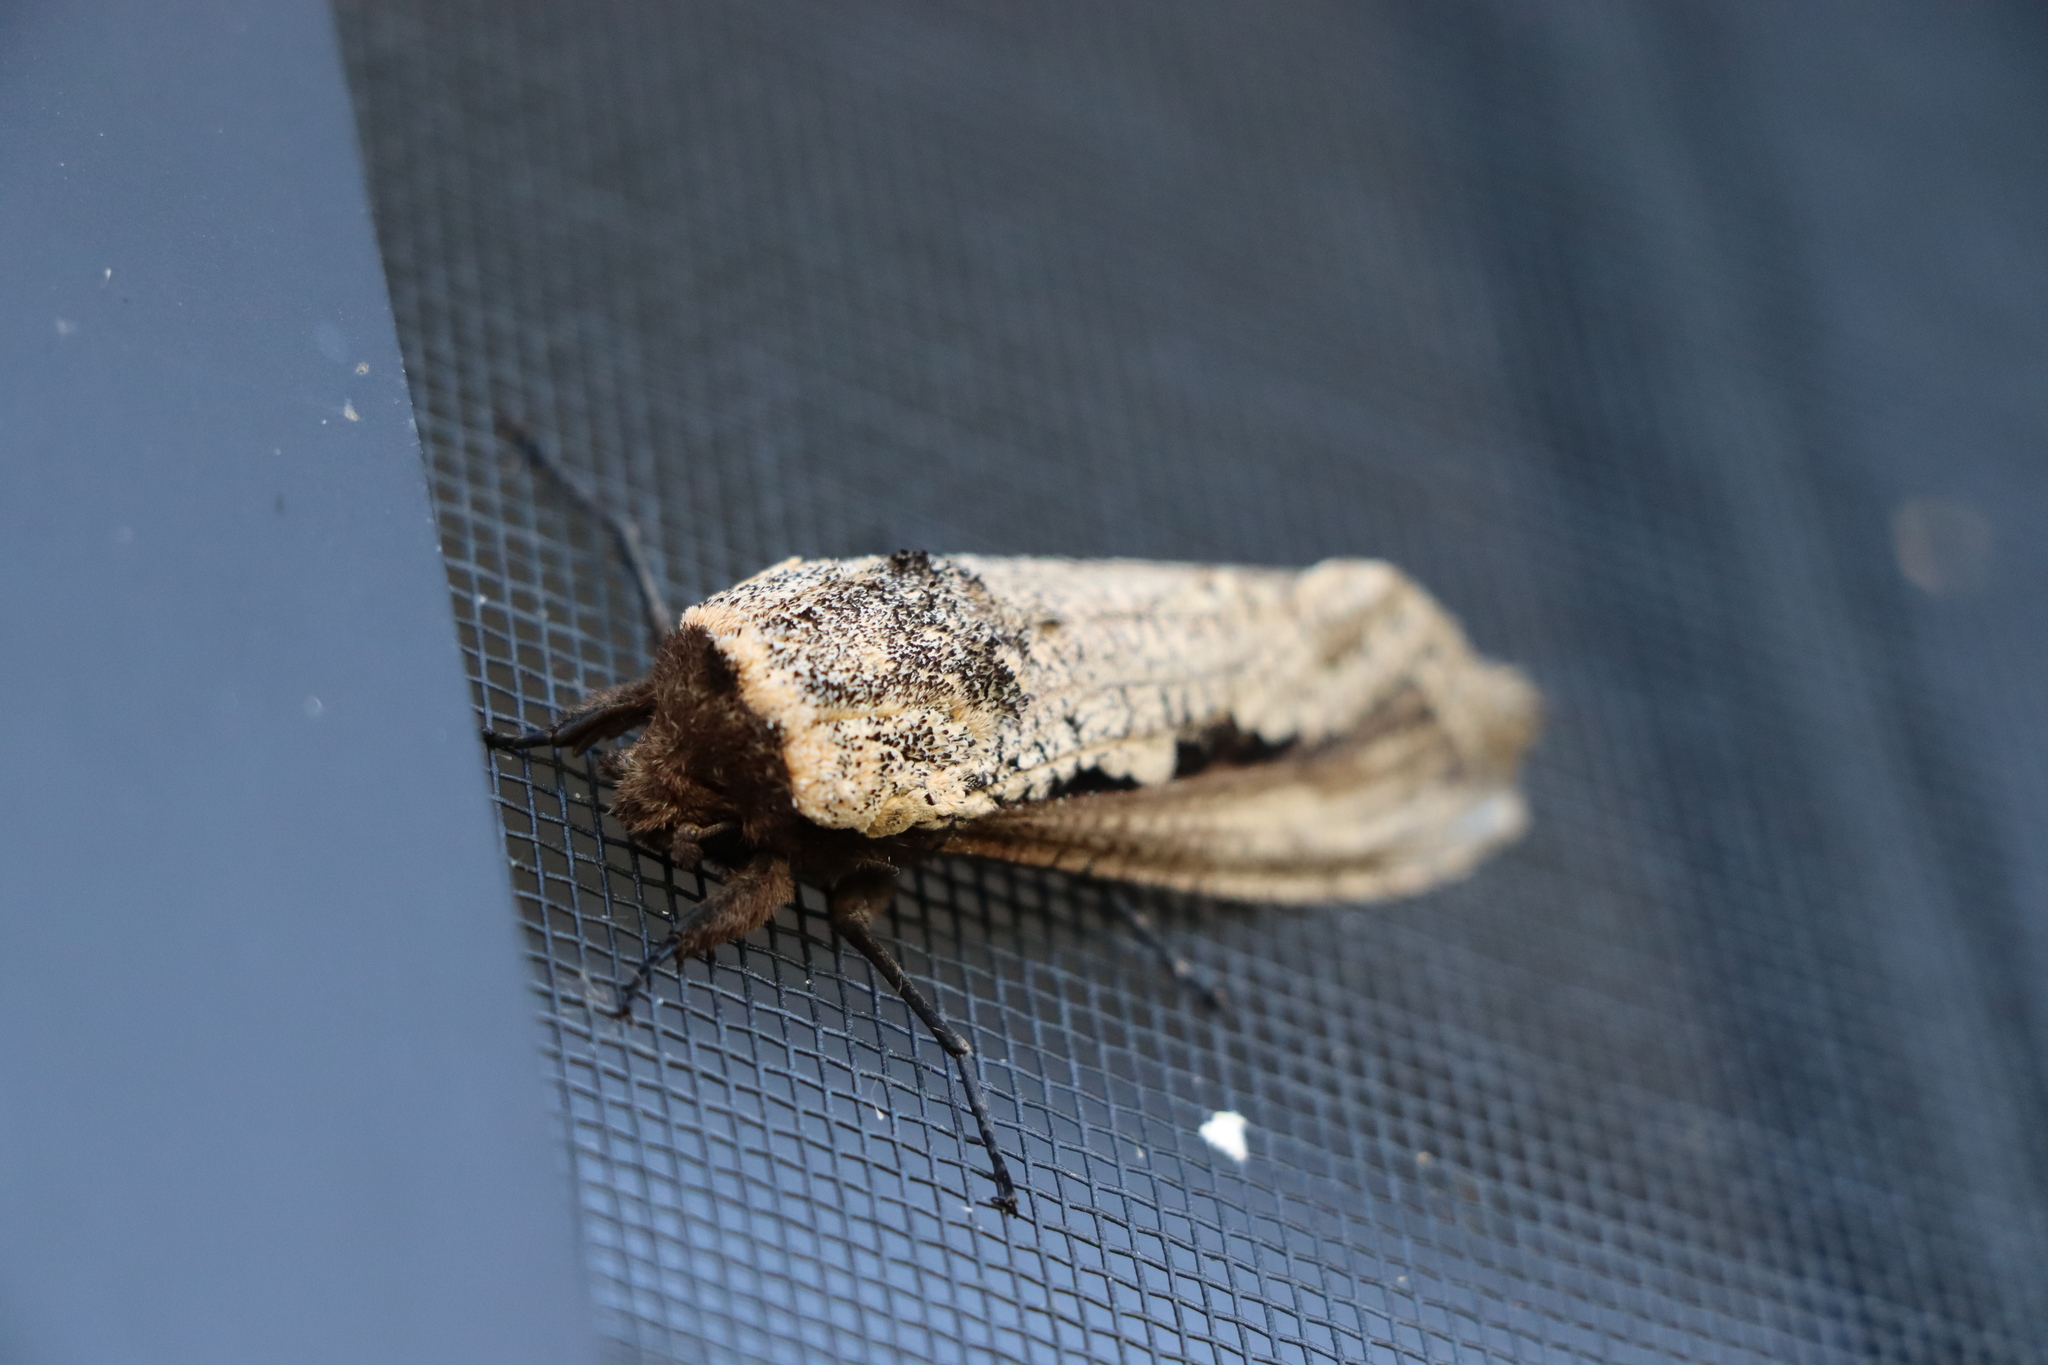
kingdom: Animalia
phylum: Arthropoda
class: Insecta
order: Lepidoptera
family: Cossidae
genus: Morpheis
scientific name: Morpheis xylotribus
